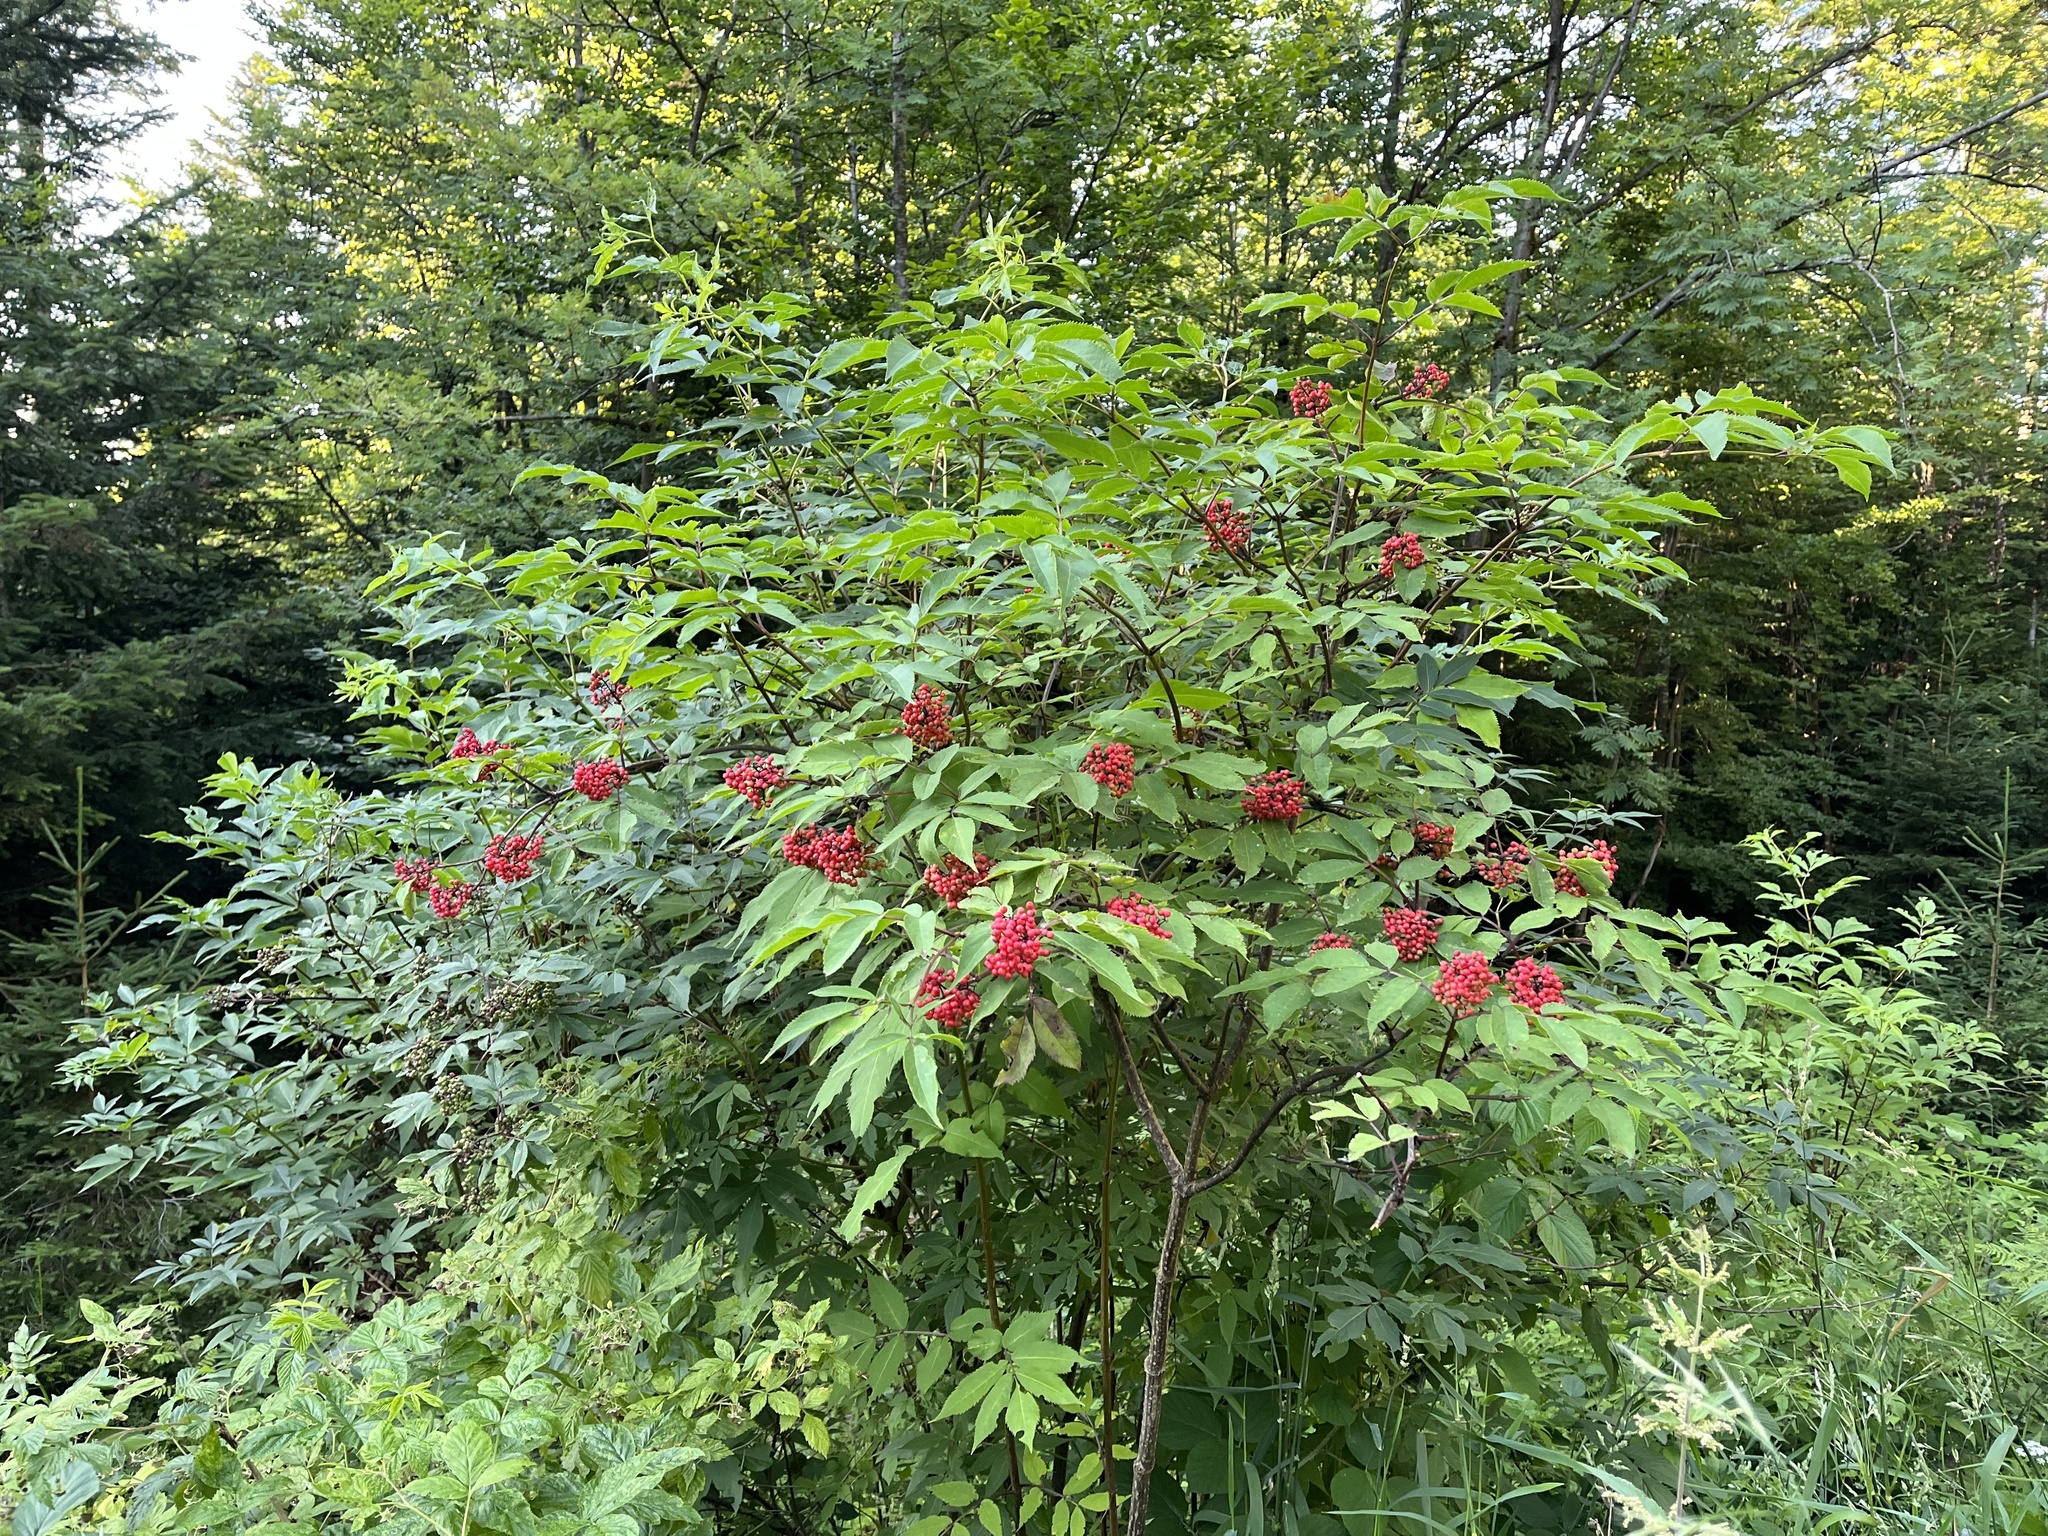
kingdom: Plantae
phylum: Tracheophyta
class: Magnoliopsida
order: Dipsacales
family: Viburnaceae
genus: Sambucus
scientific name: Sambucus racemosa
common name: Red-berried elder
